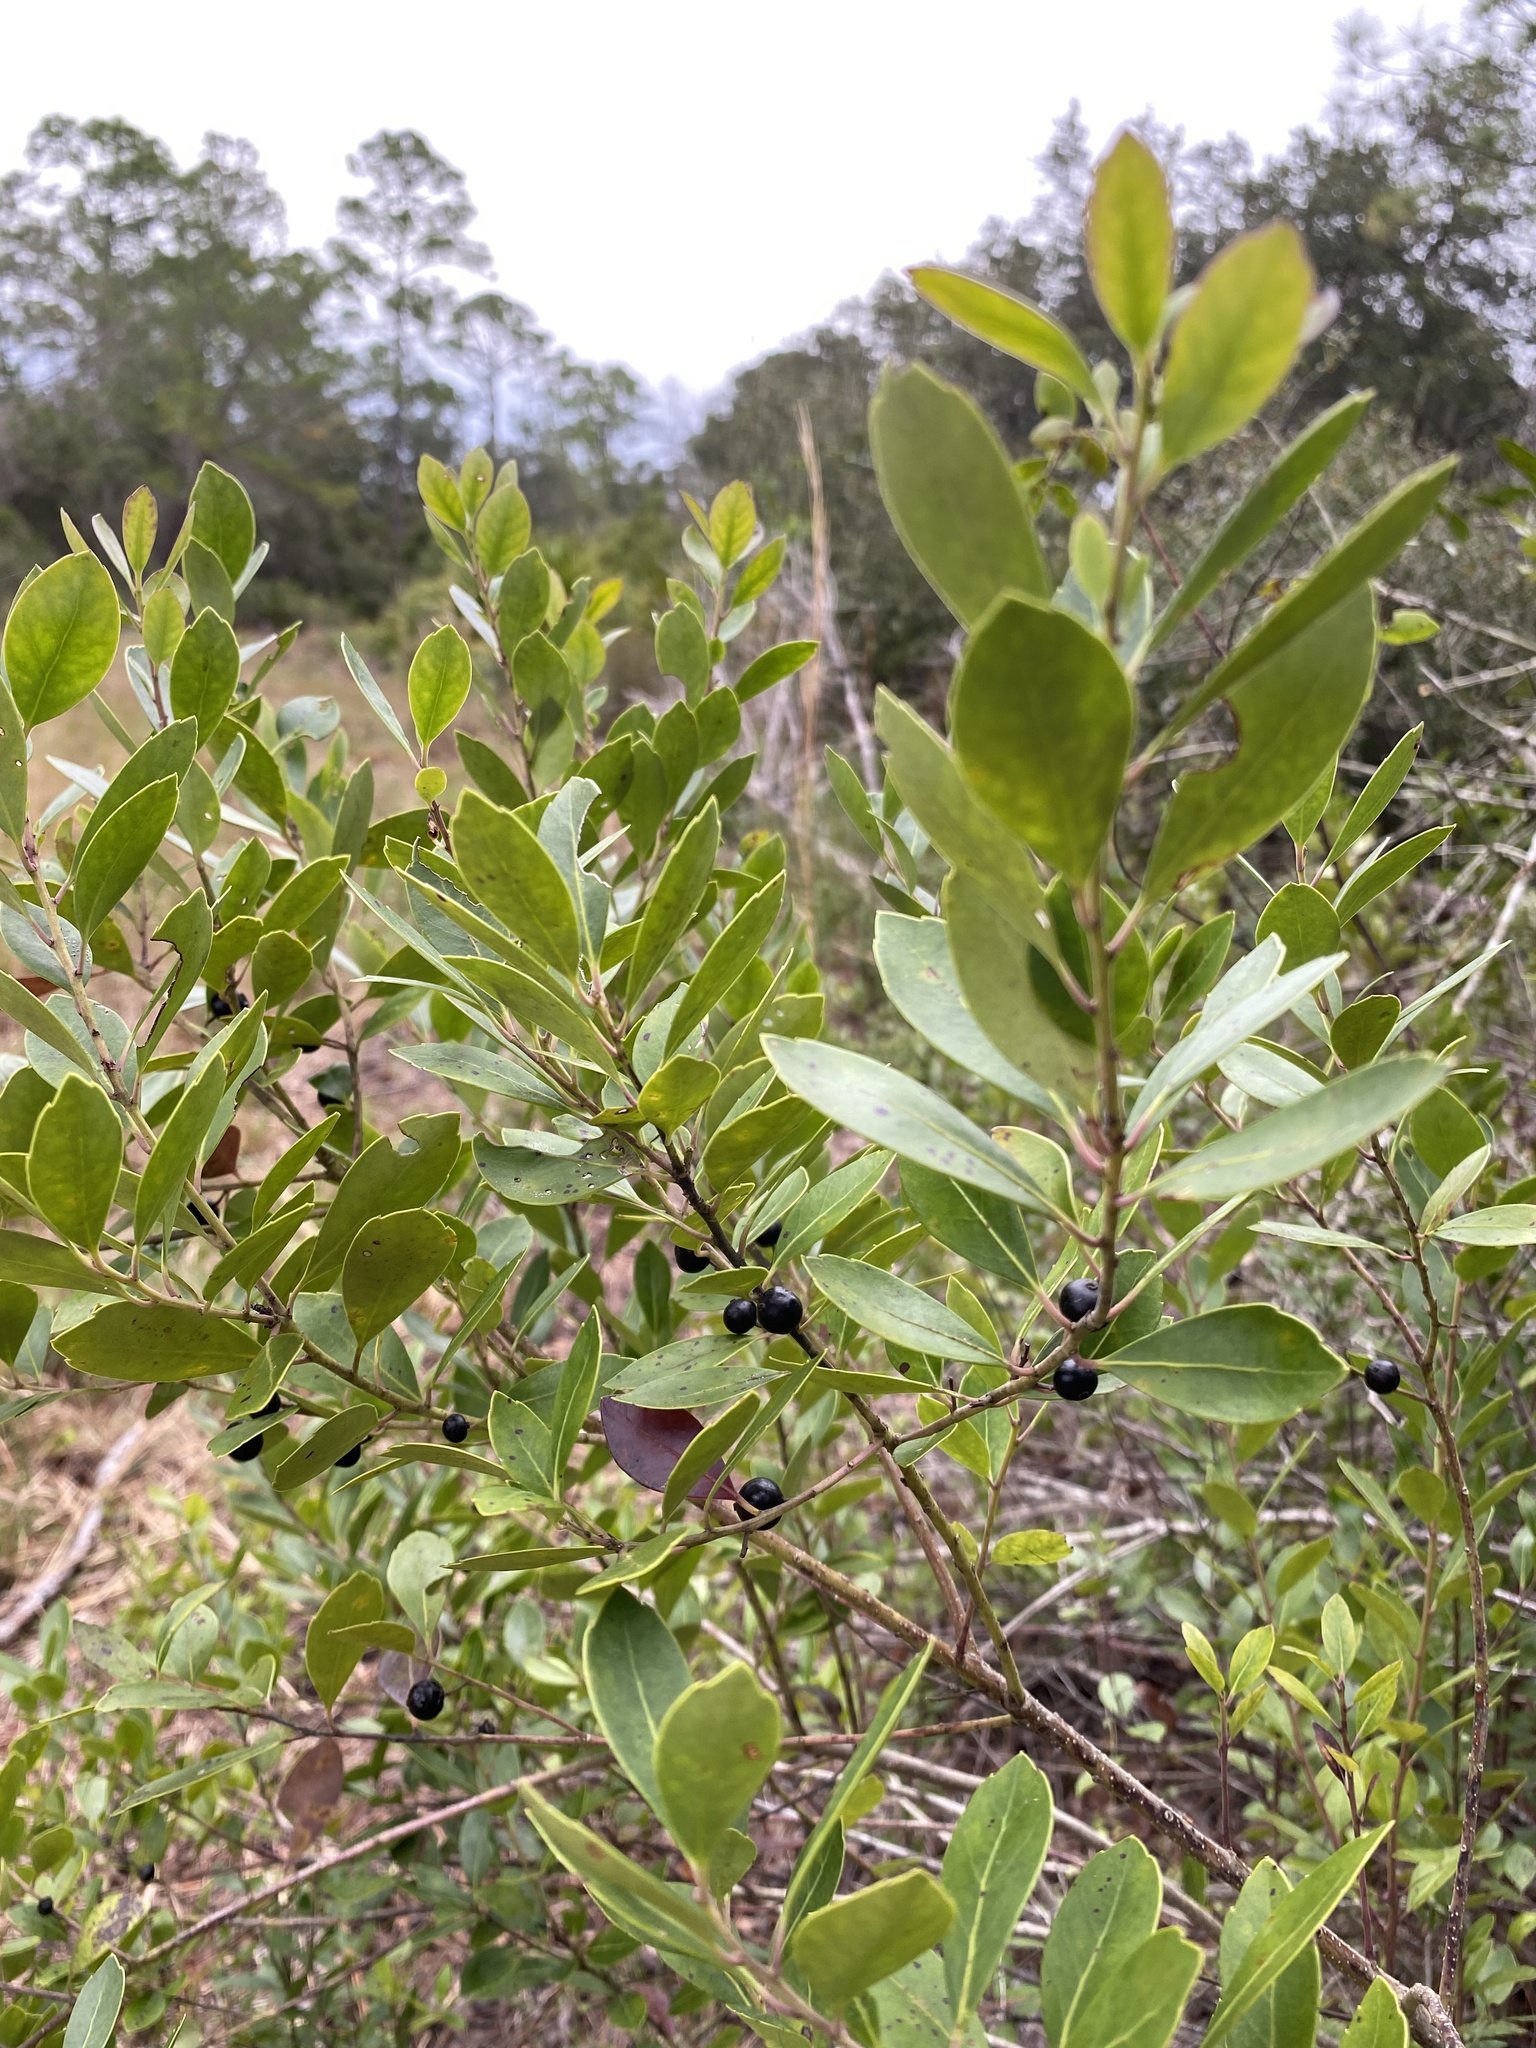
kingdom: Plantae
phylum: Tracheophyta
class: Magnoliopsida
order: Aquifoliales
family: Aquifoliaceae
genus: Ilex
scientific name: Ilex coriacea
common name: Sweet gallberry
